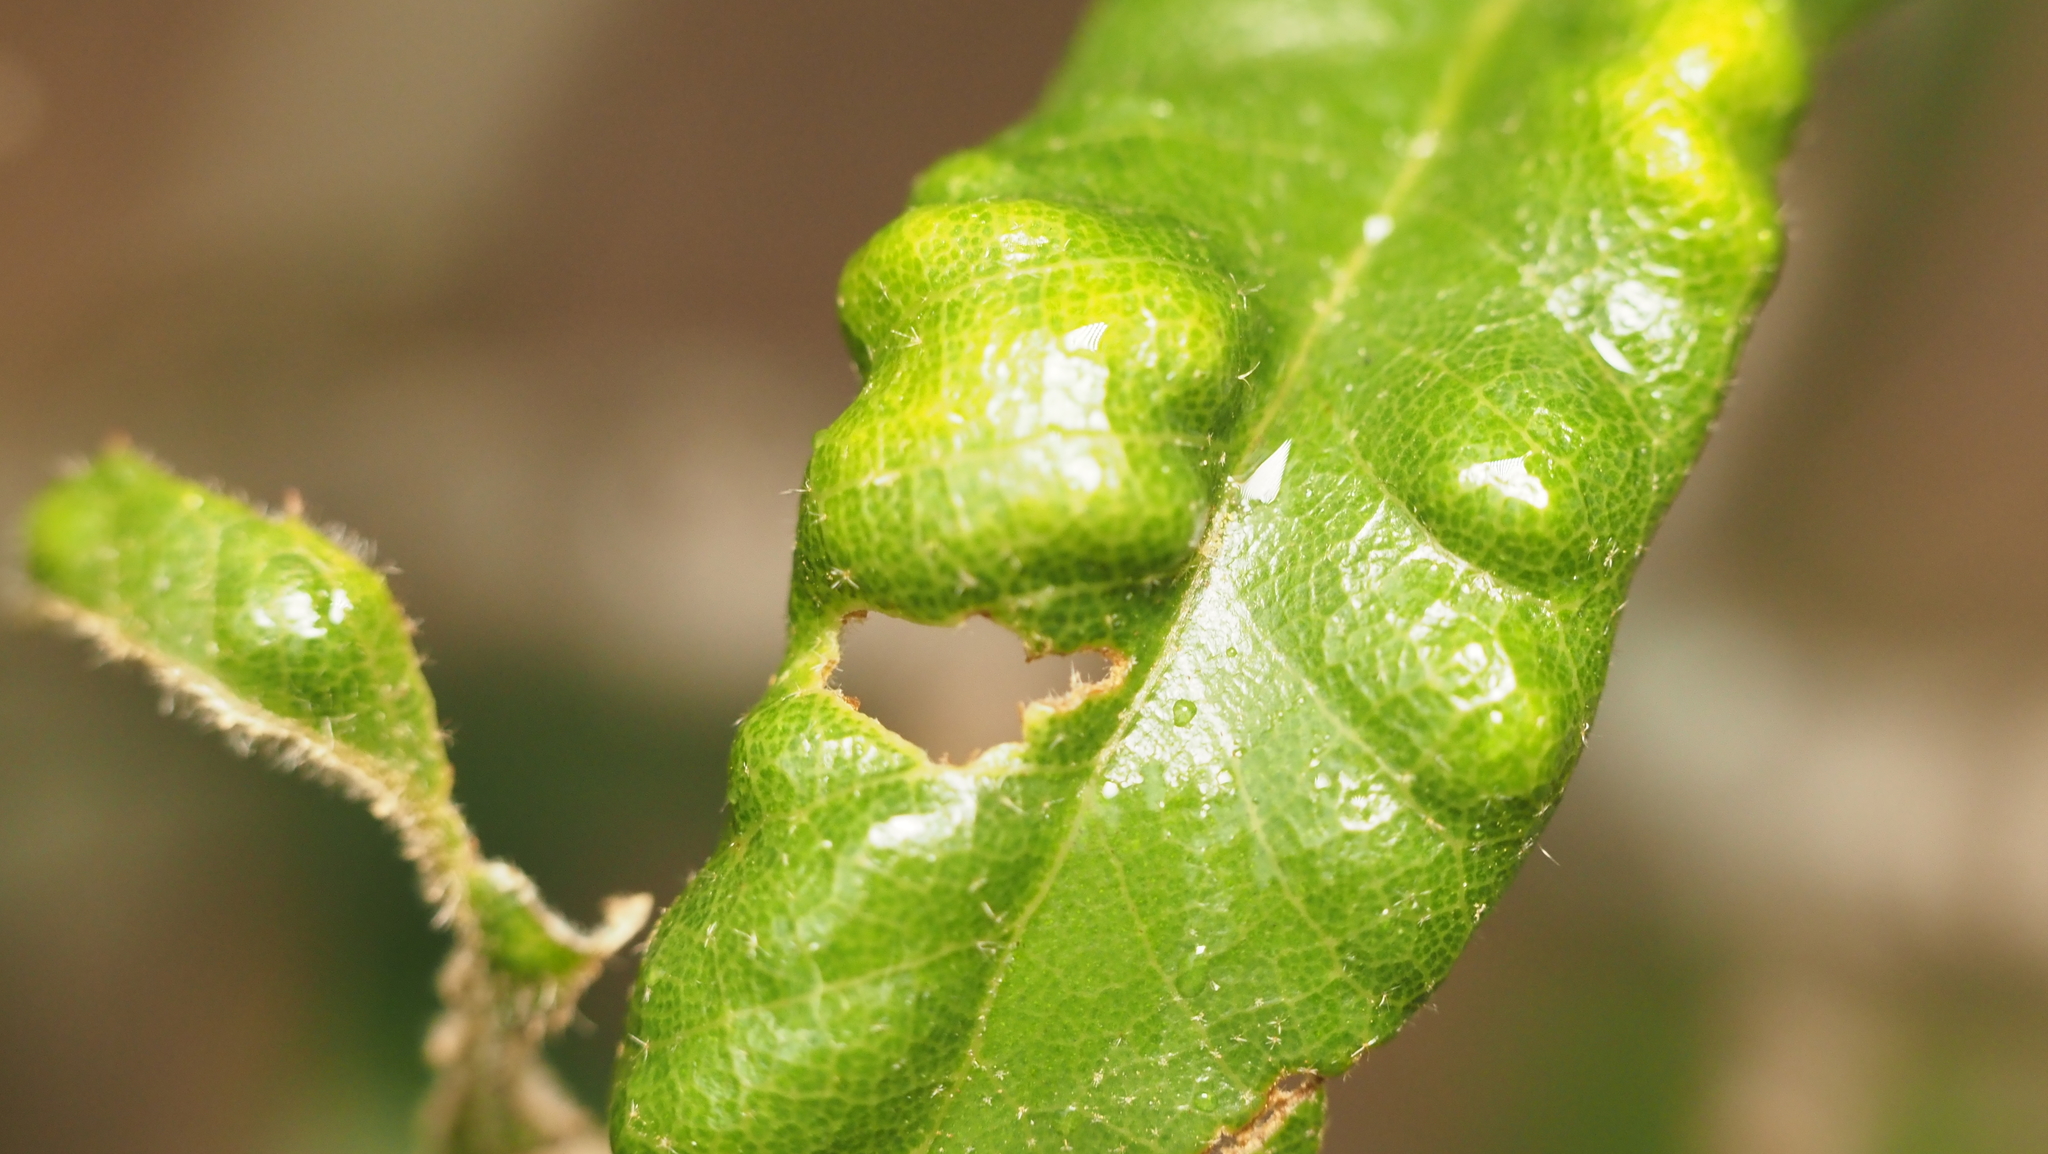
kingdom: Animalia
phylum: Arthropoda
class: Arachnida
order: Trombidiformes
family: Eriophyidae
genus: Aceria
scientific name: Aceria quercina
